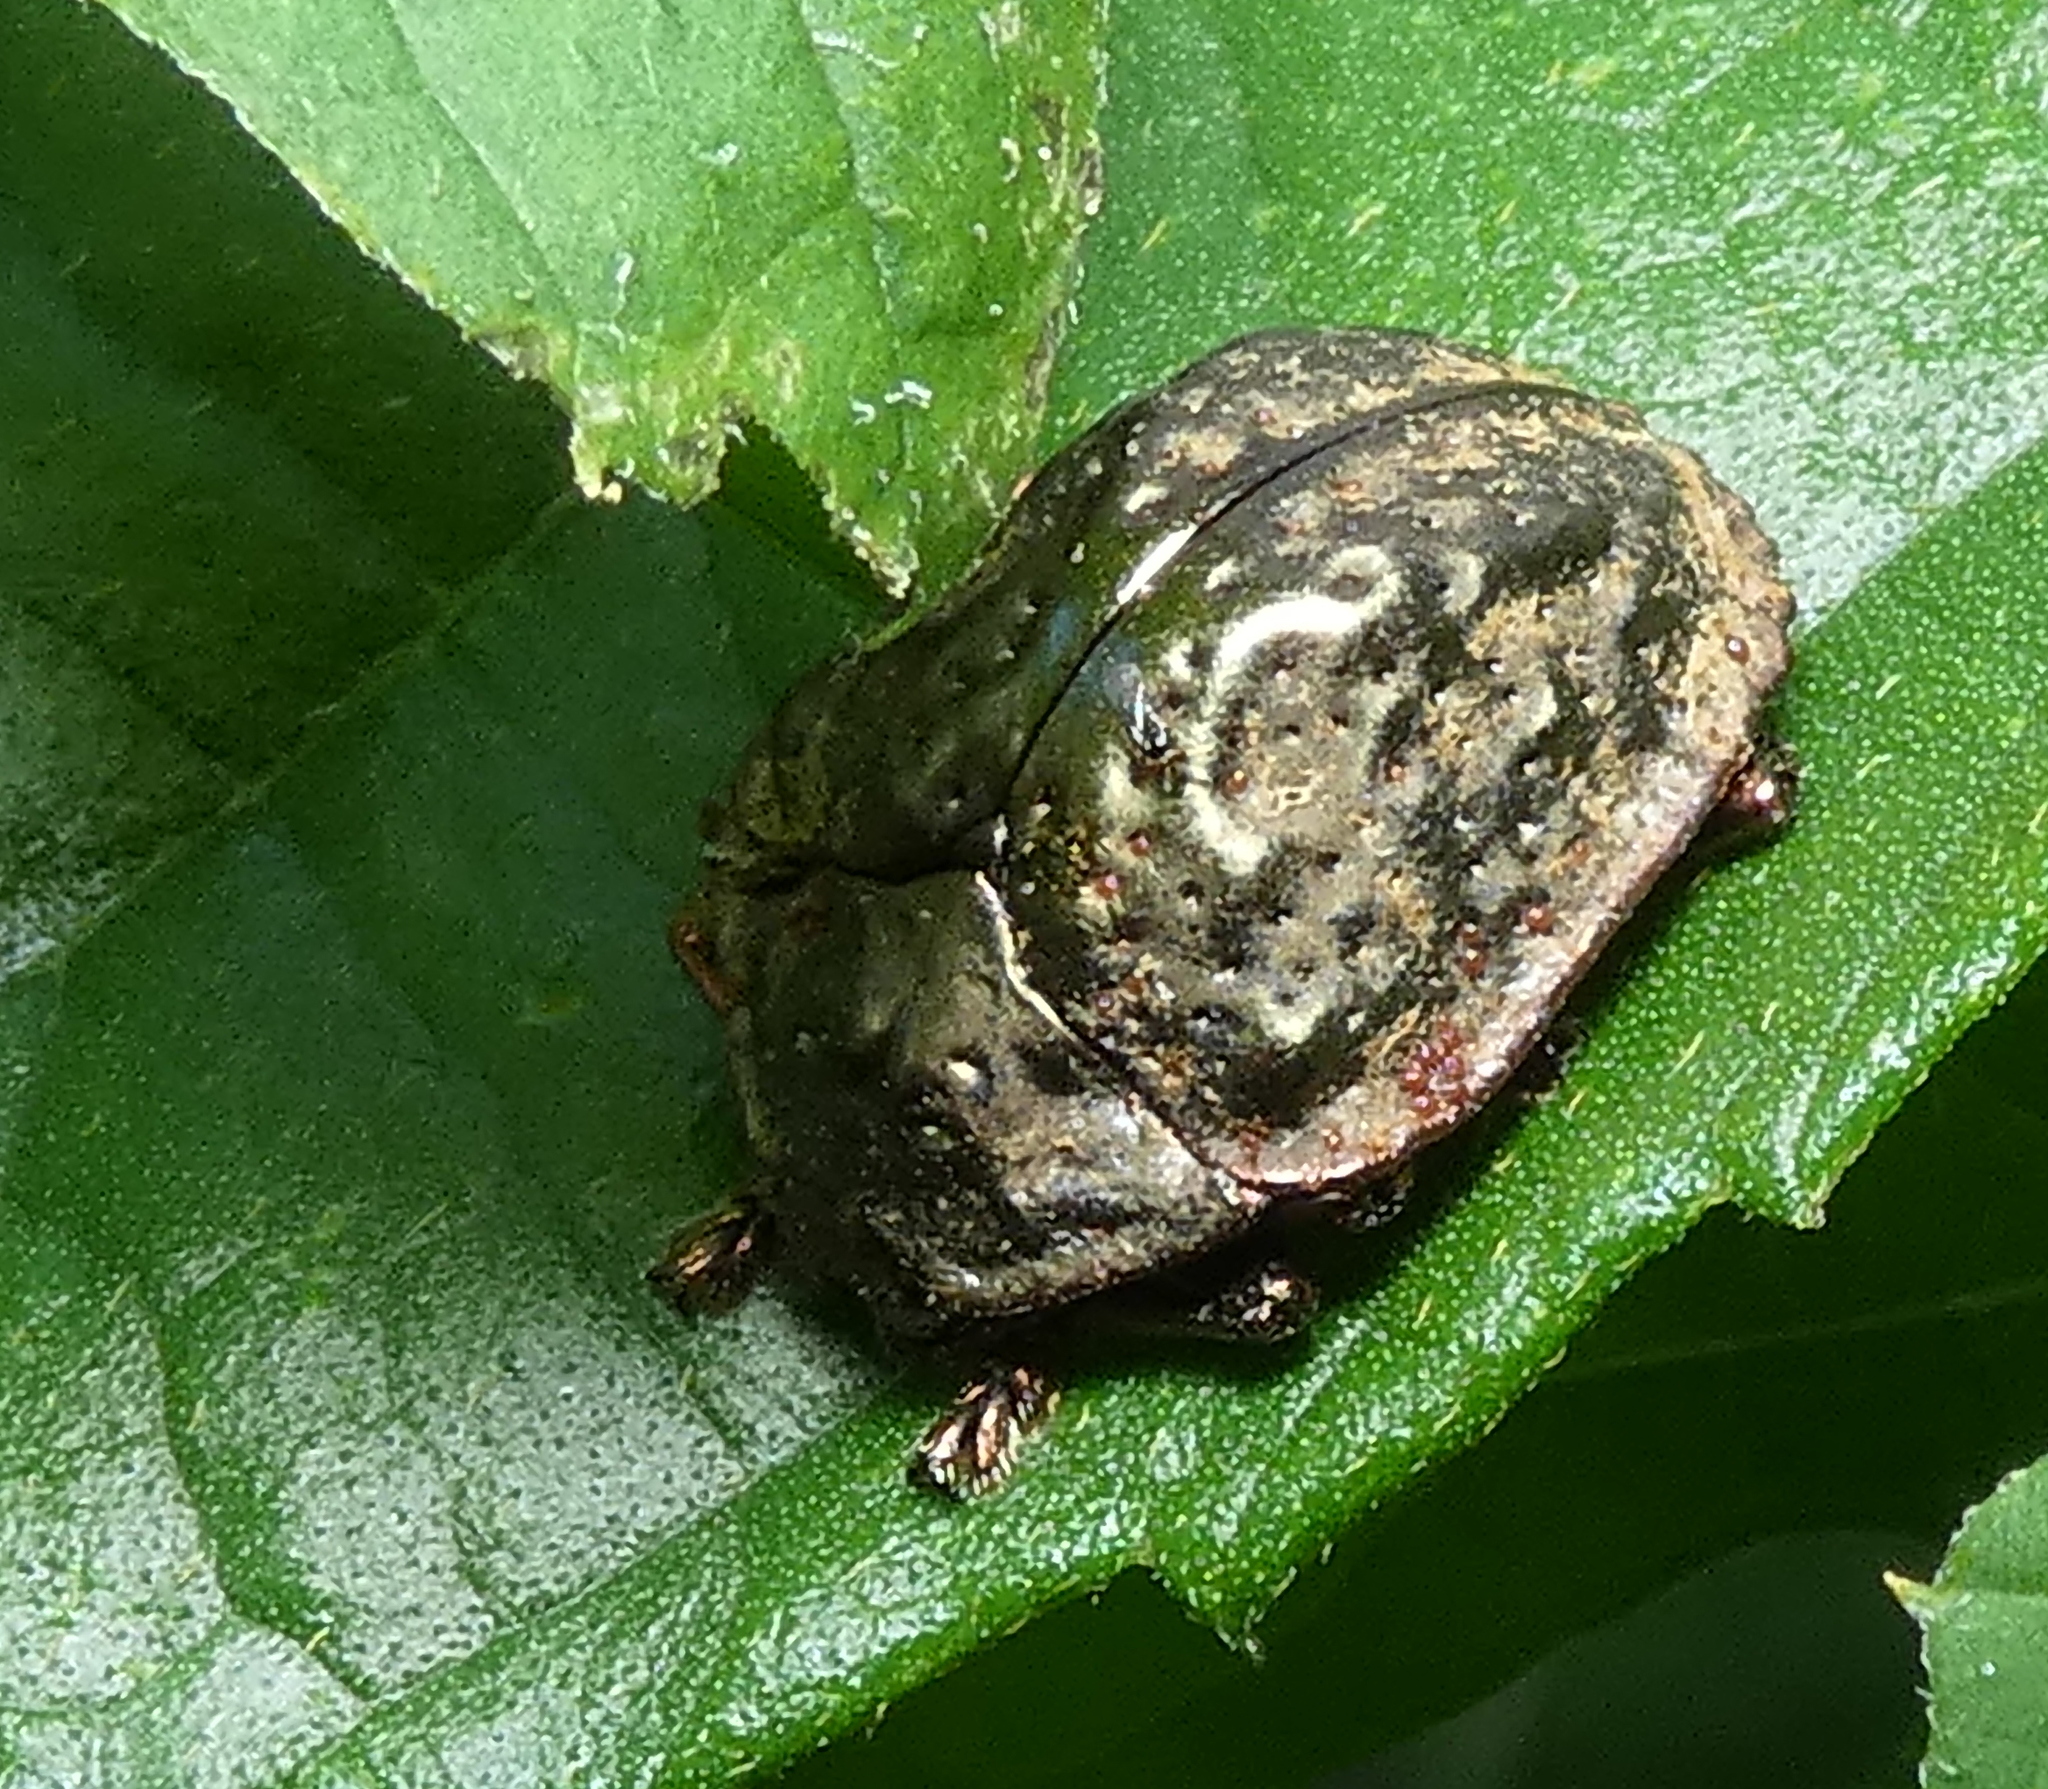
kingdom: Animalia
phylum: Arthropoda
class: Insecta
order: Coleoptera
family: Chrysomelidae
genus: Polychalca
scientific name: Polychalca aerea
